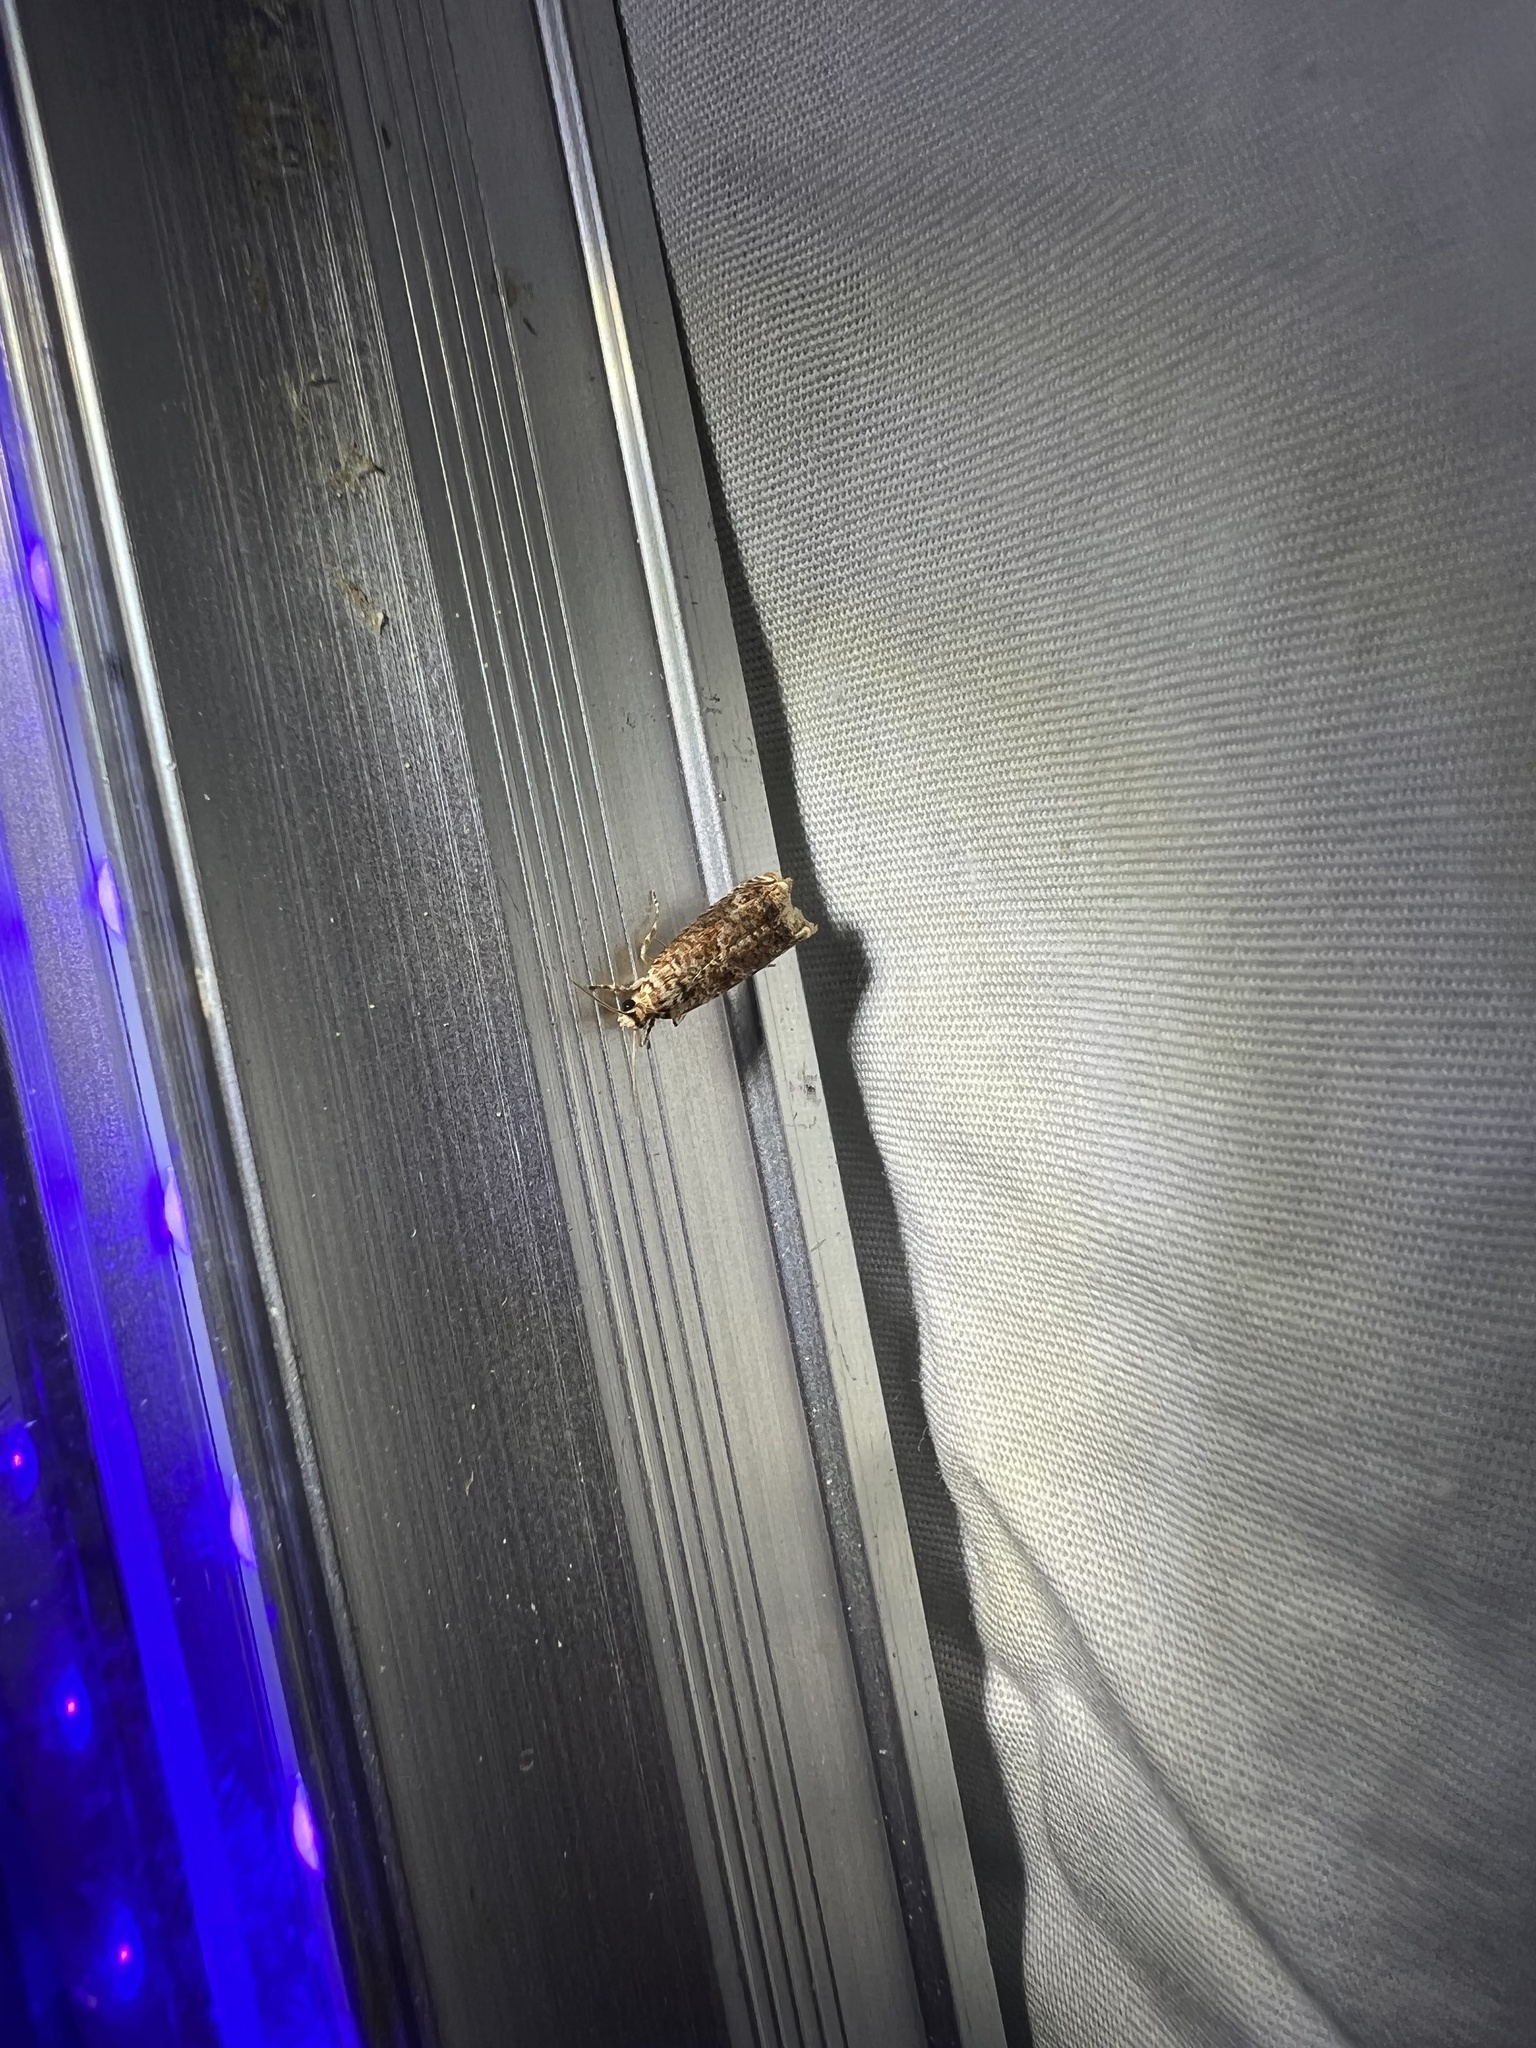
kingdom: Animalia
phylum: Arthropoda
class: Insecta
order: Lepidoptera
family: Tortricidae
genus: Episimus
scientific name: Episimus argutana
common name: Sumac leaftier moth
